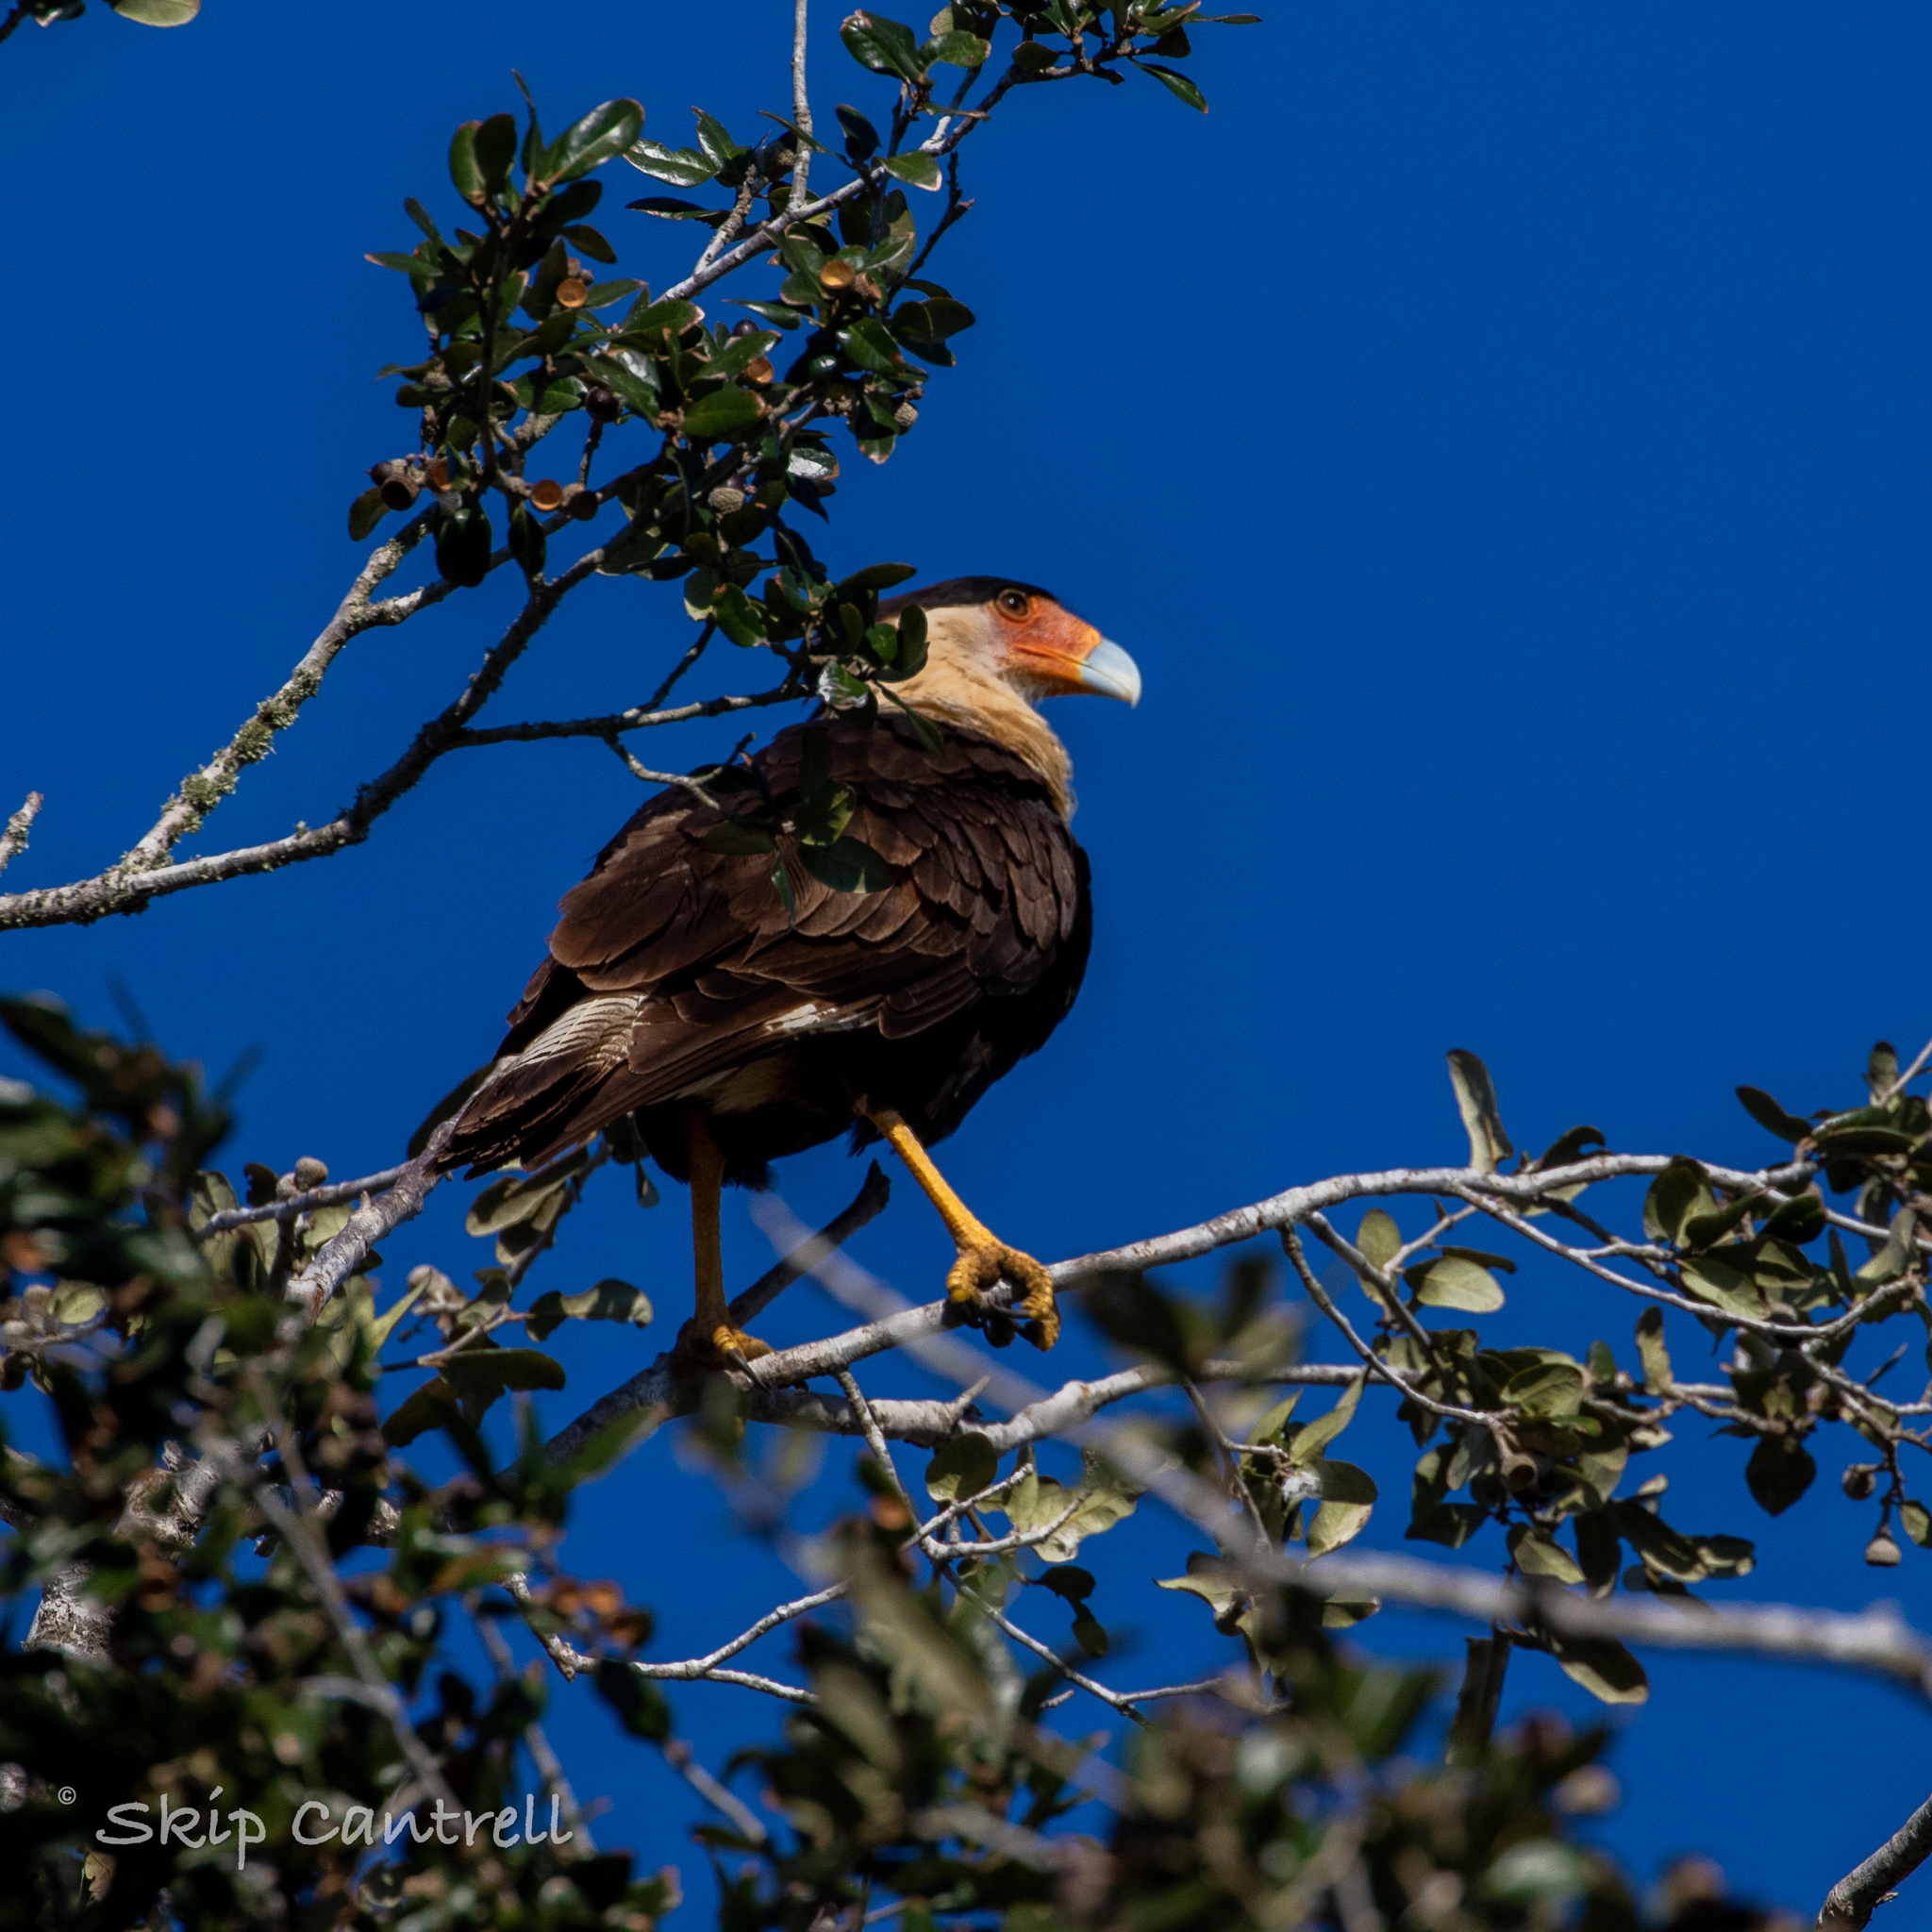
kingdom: Animalia
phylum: Chordata
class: Aves
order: Falconiformes
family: Falconidae
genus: Caracara
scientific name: Caracara plancus
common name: Southern caracara
